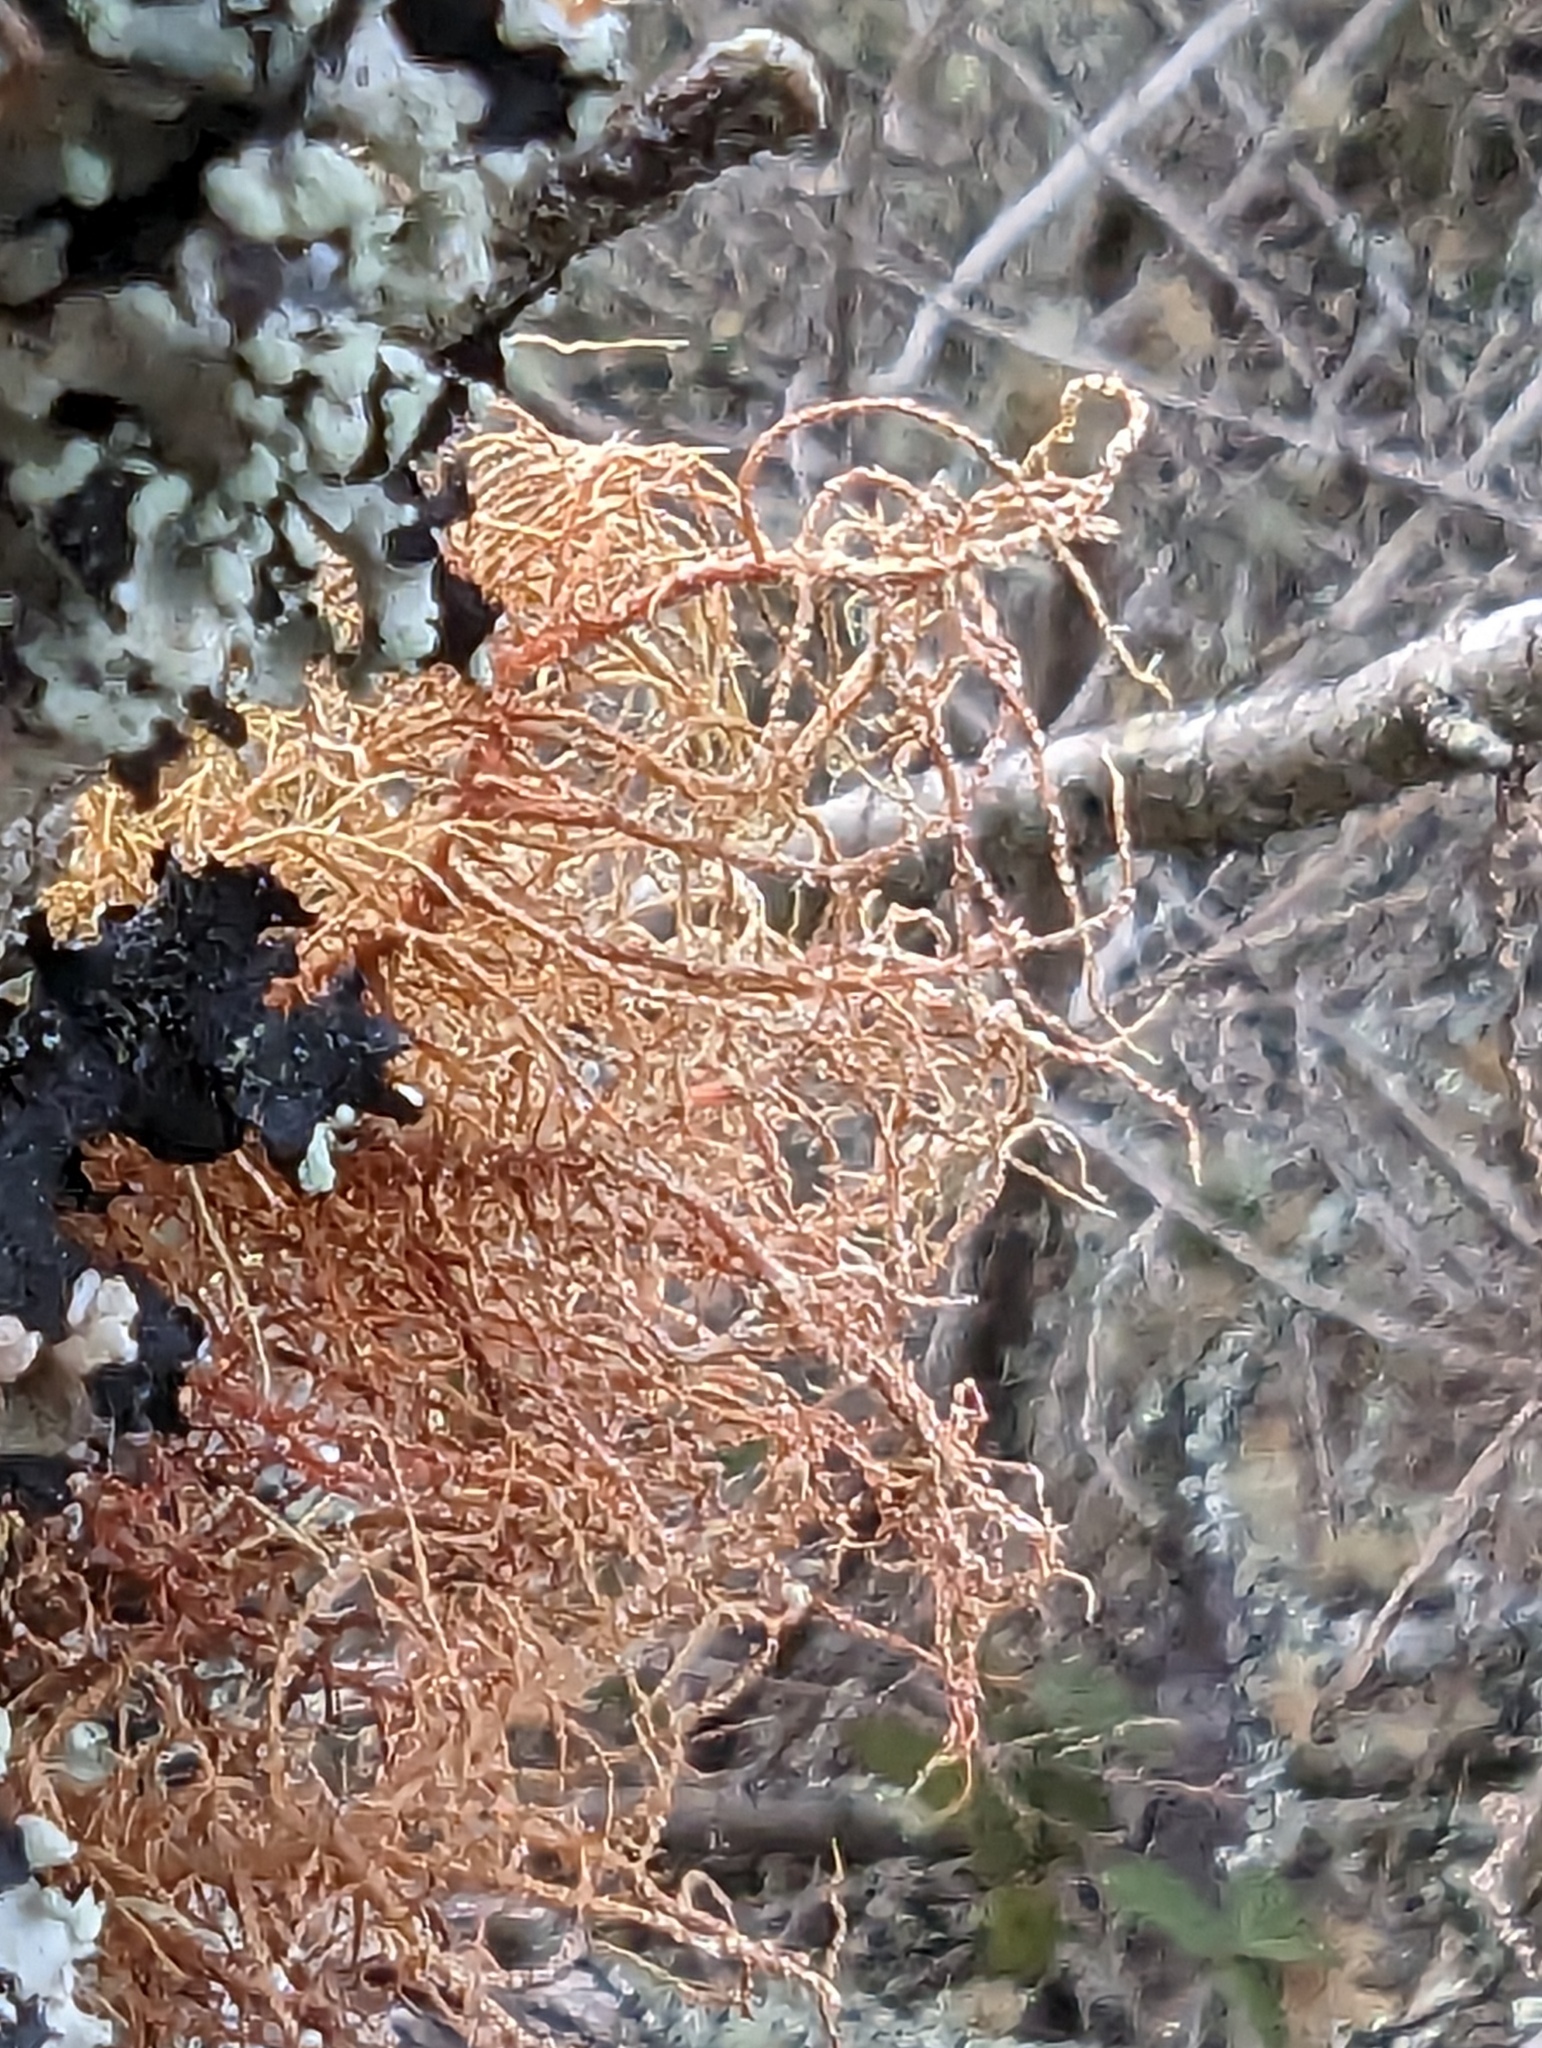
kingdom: Fungi
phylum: Ascomycota
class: Lecanoromycetes
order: Lecanorales
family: Parmeliaceae
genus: Usnea
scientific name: Usnea rubicunda
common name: Red beard lichen
